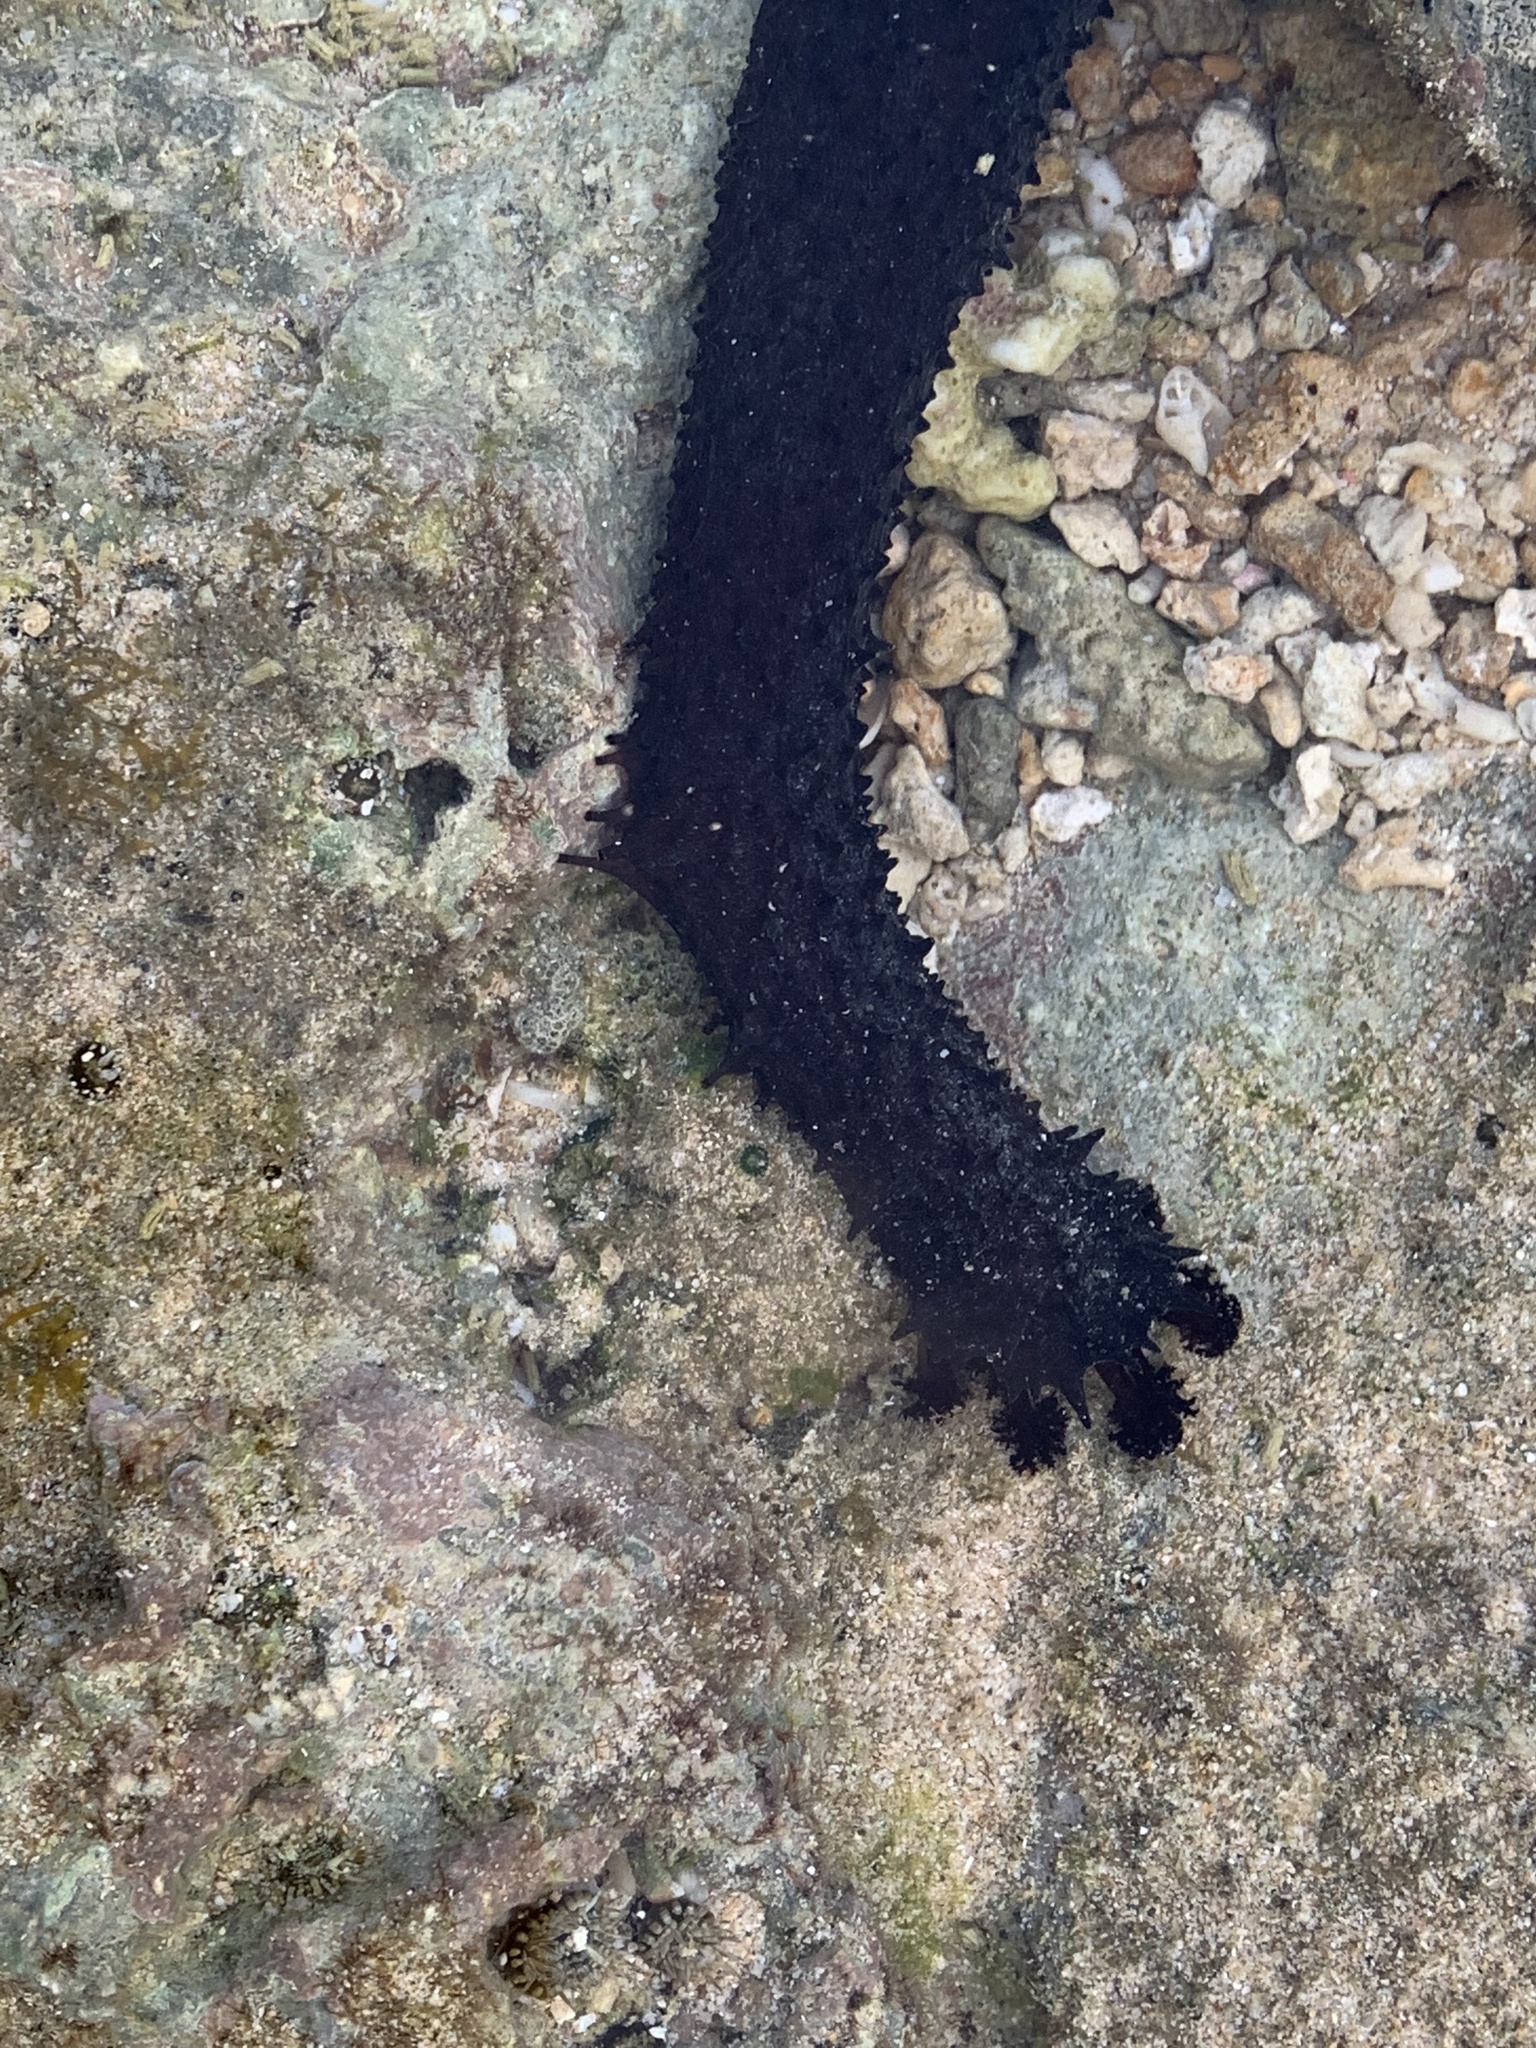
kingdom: Animalia
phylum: Echinodermata
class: Holothuroidea
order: Holothuriida
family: Holothuriidae
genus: Holothuria
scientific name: Holothuria leucospilota
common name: White thread fish
